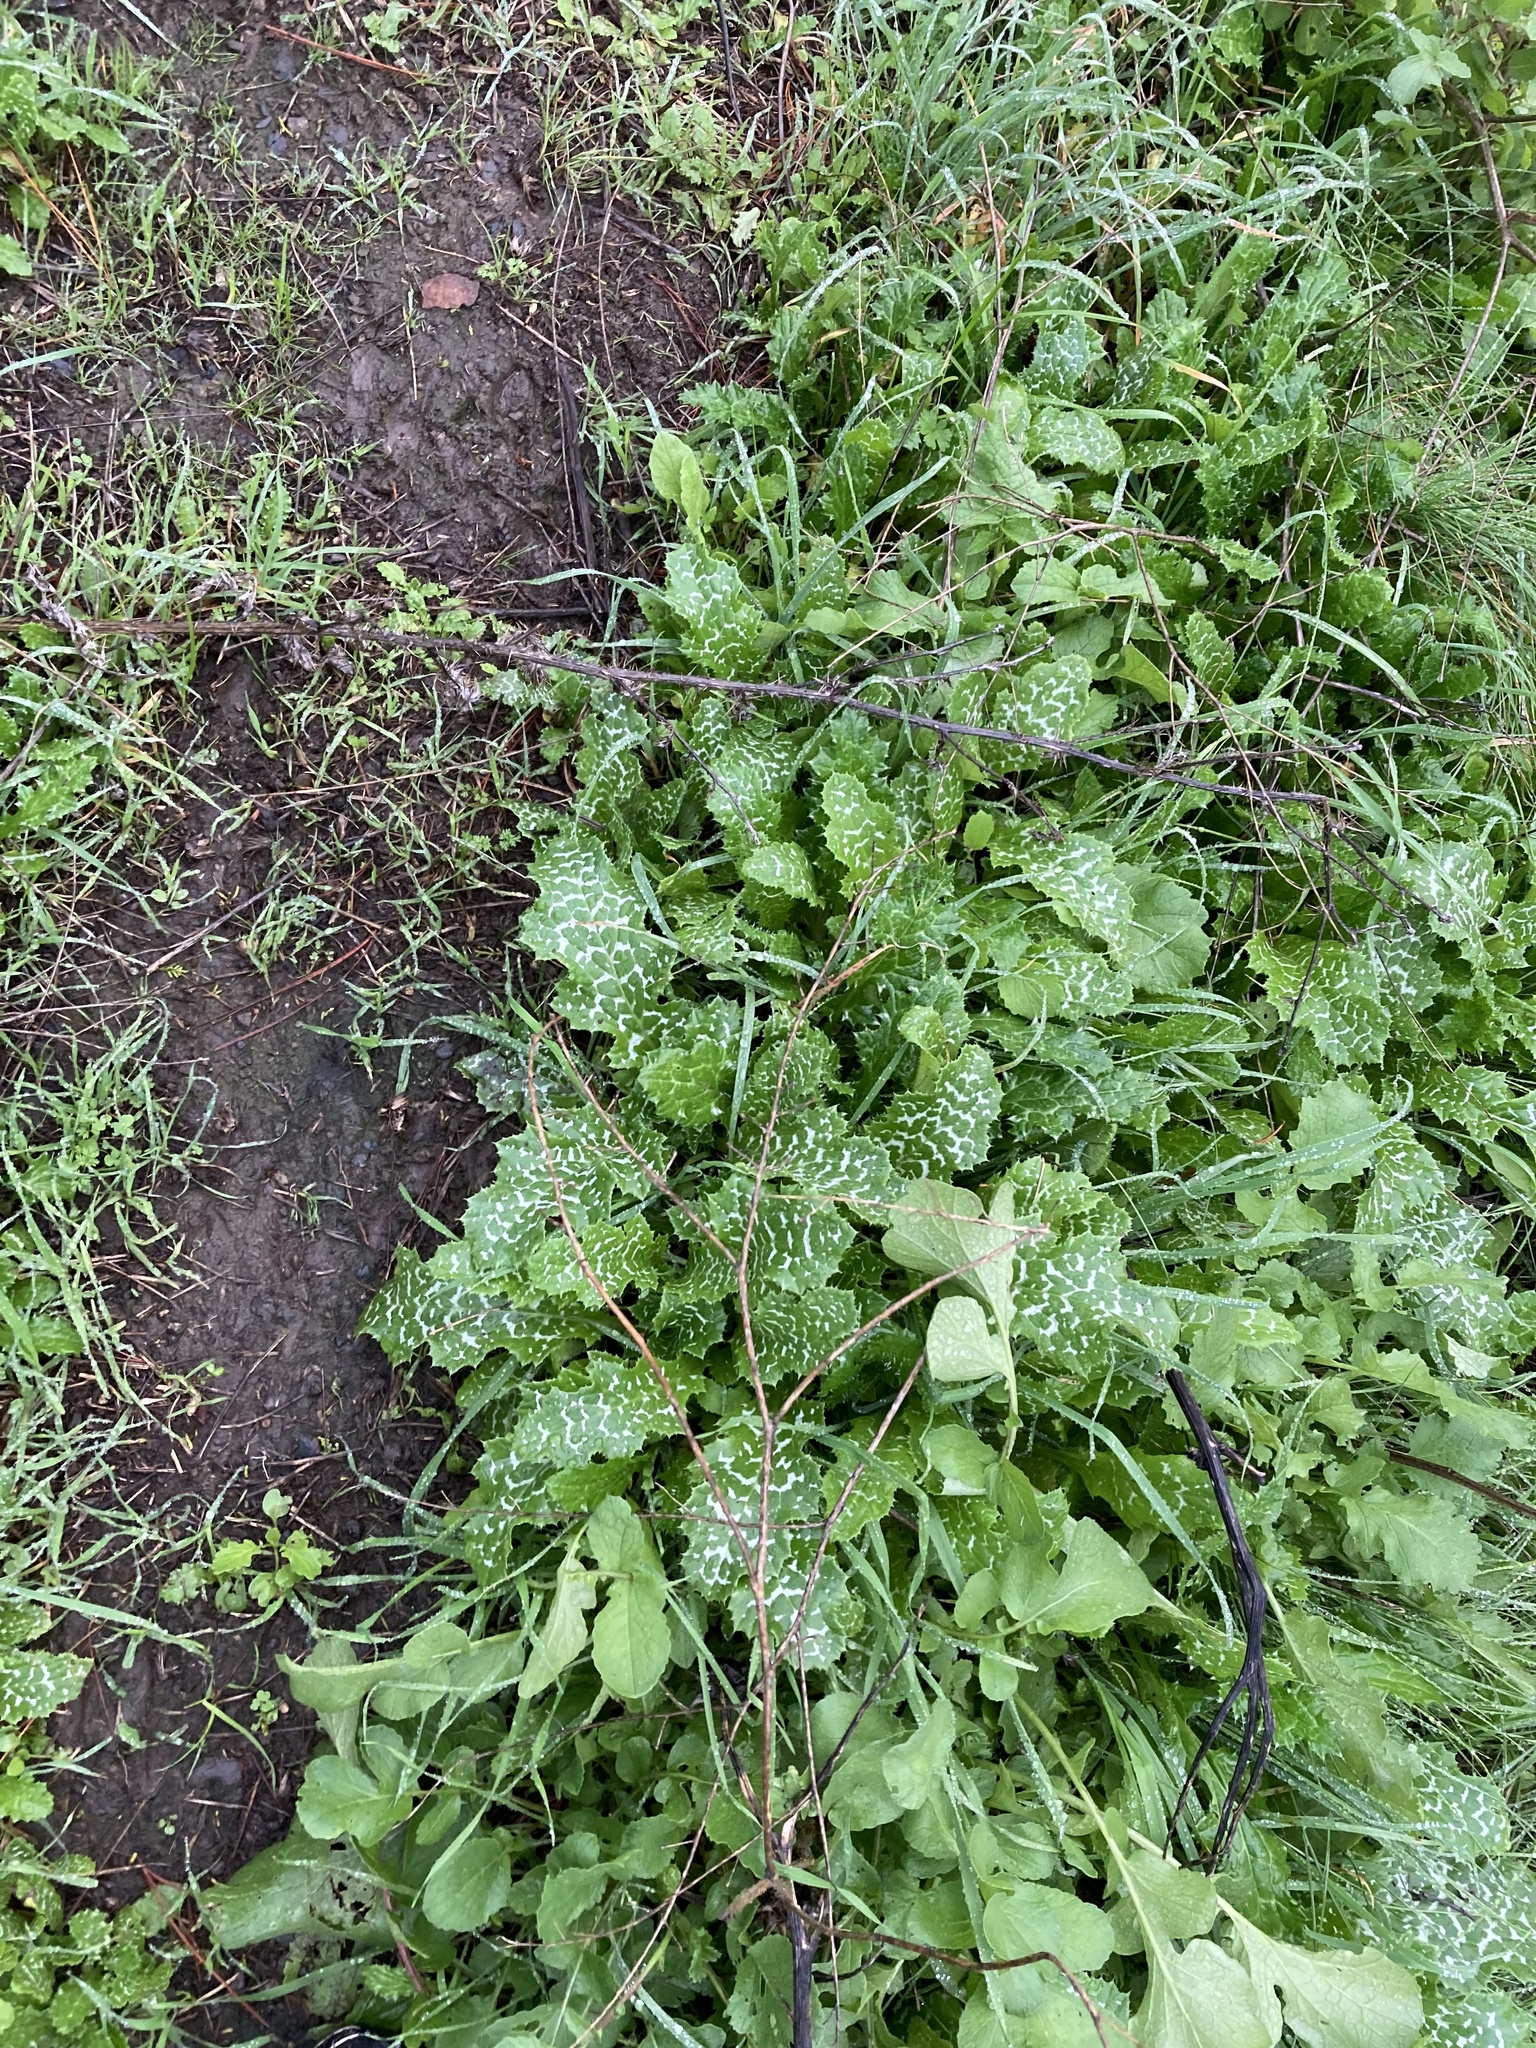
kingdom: Plantae
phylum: Tracheophyta
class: Magnoliopsida
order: Asterales
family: Asteraceae
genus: Silybum
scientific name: Silybum marianum
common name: Milk thistle
